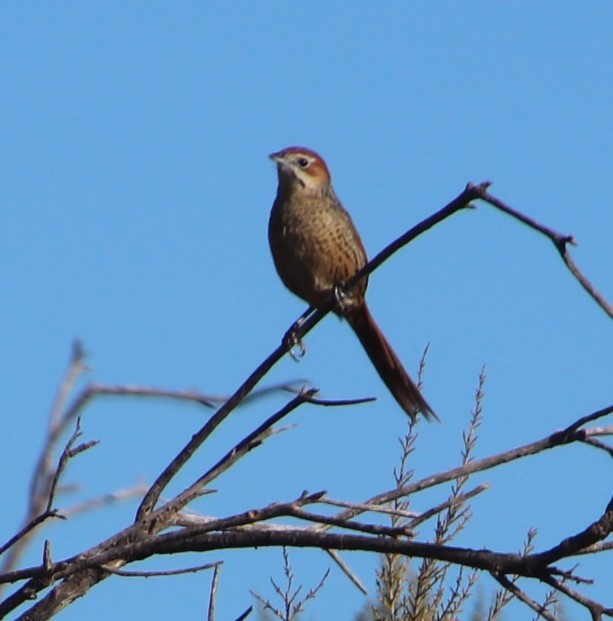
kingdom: Animalia
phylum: Chordata
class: Aves
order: Passeriformes
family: Macrosphenidae
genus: Sphenoeacus
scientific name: Sphenoeacus afer
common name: Cape grassbird
